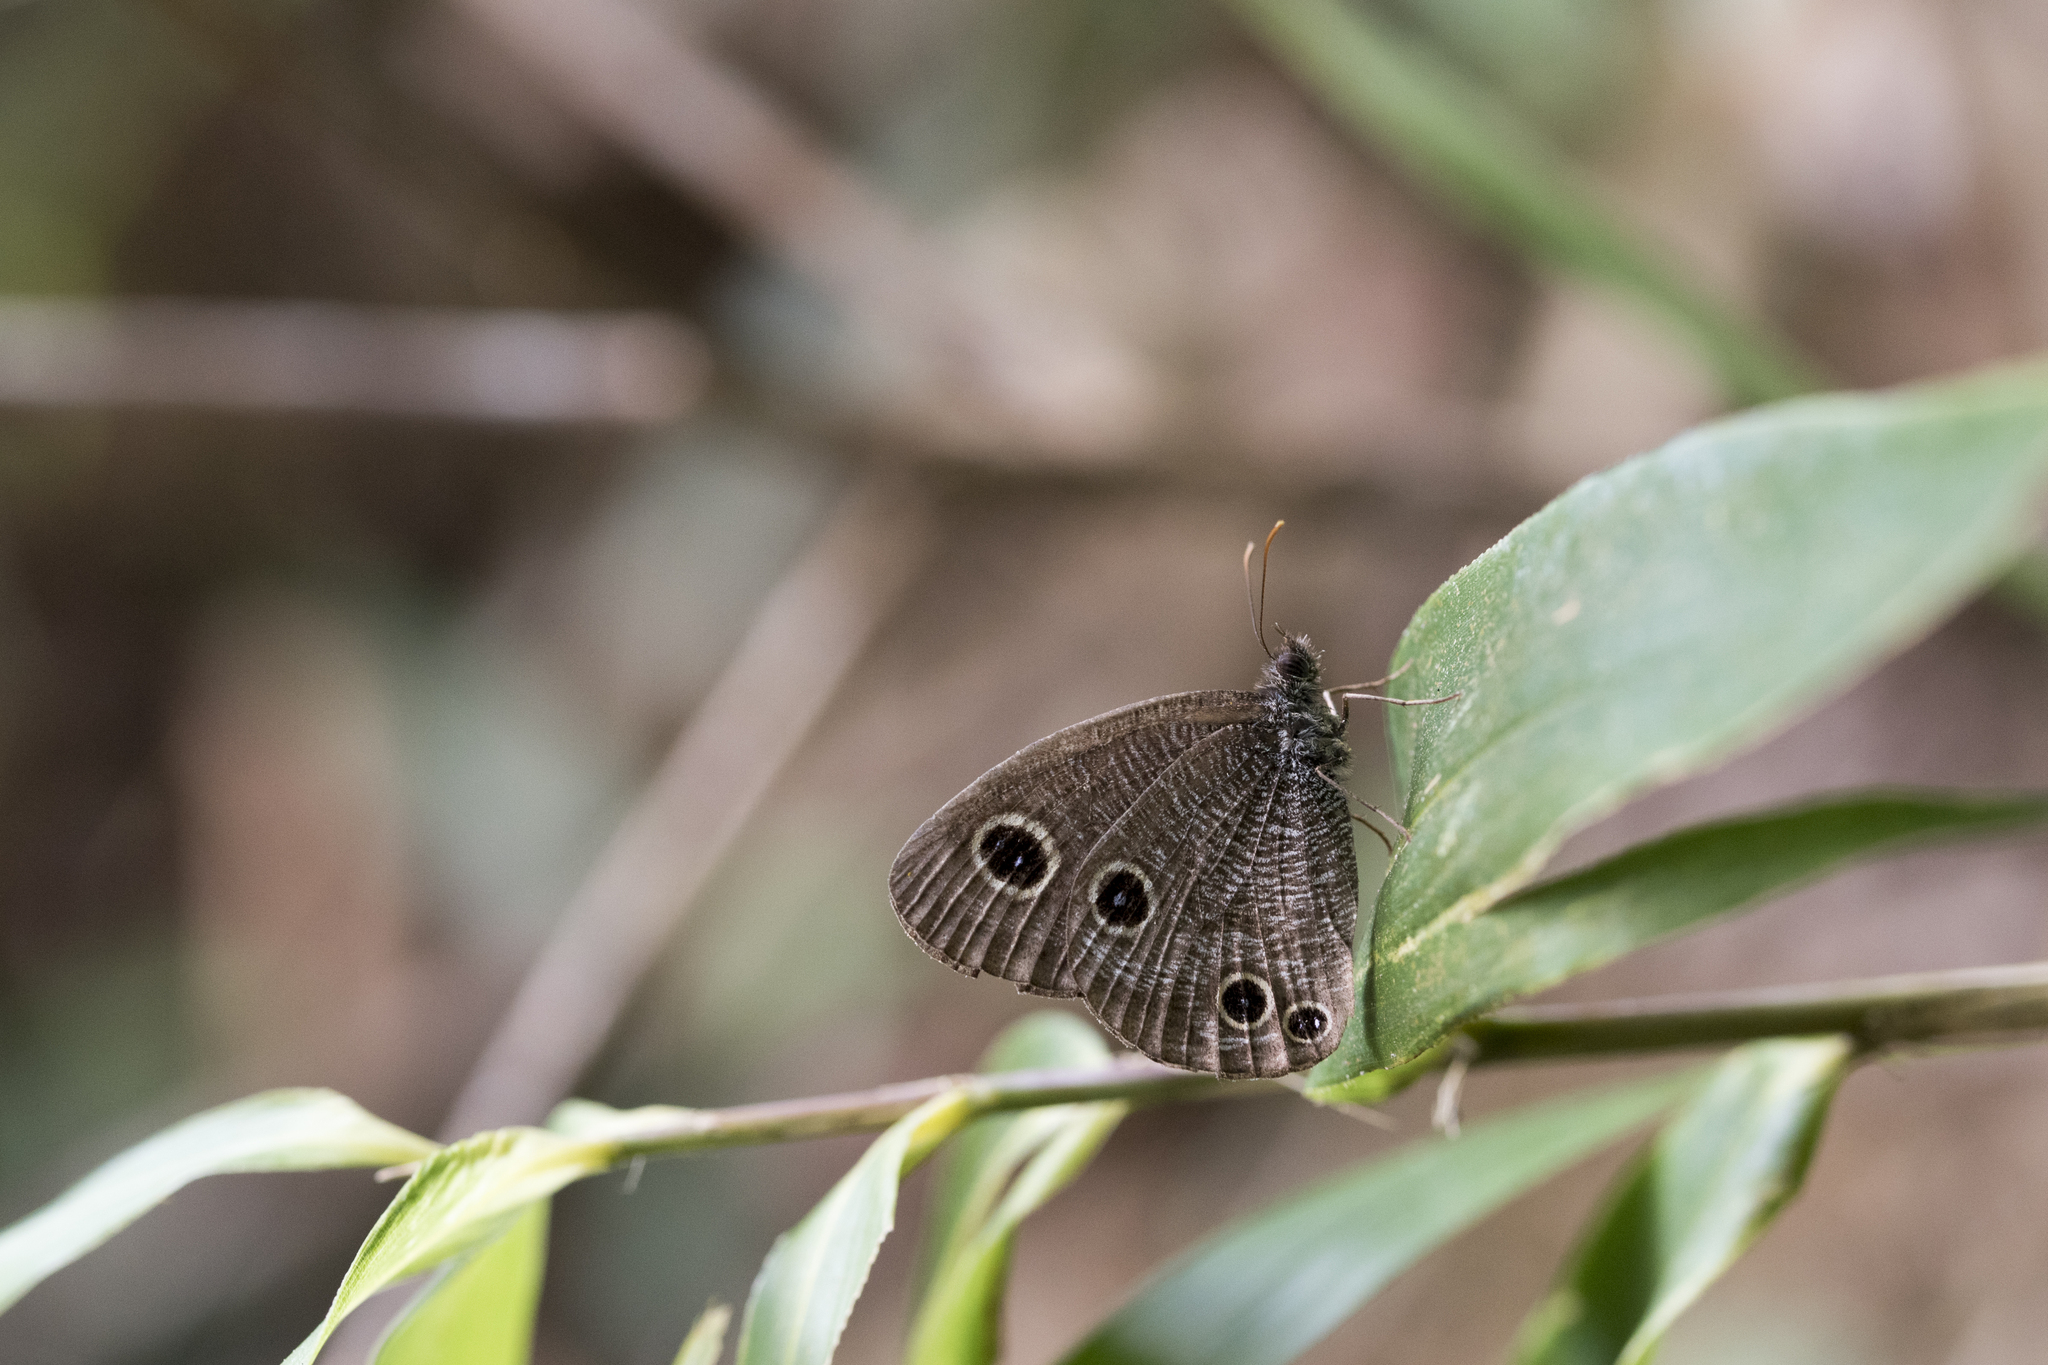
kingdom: Animalia
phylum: Arthropoda
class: Insecta
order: Lepidoptera
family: Nymphalidae
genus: Ypthima
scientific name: Ypthima multistriata
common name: Striated ringlet
